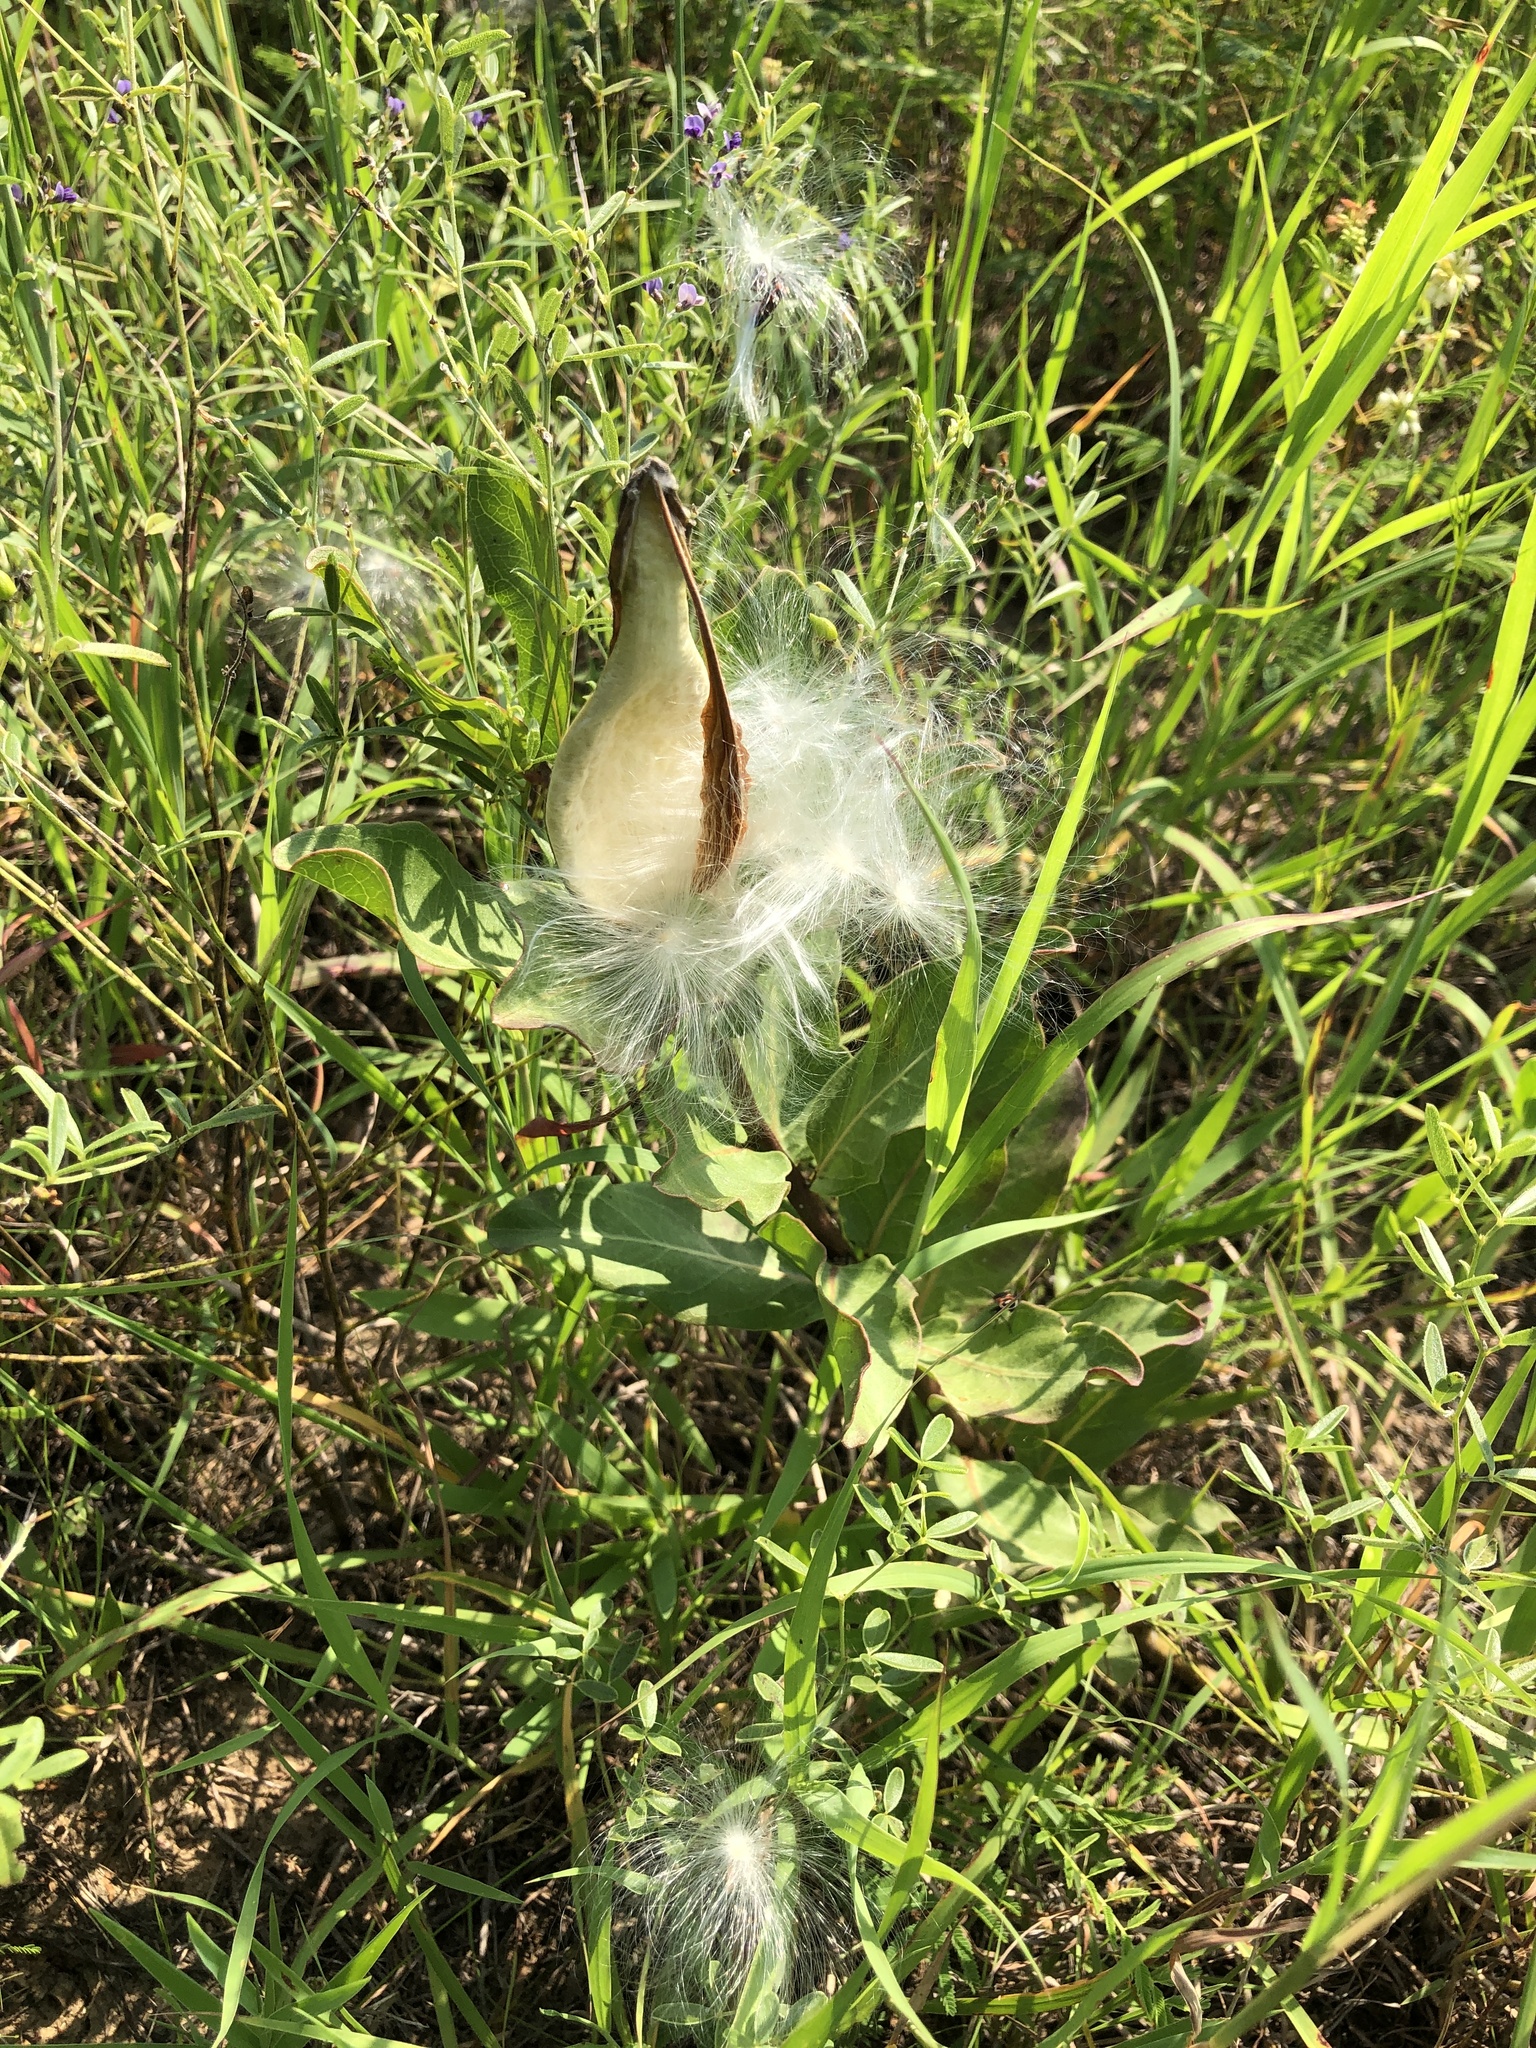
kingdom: Plantae
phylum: Tracheophyta
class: Magnoliopsida
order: Gentianales
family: Apocynaceae
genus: Asclepias
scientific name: Asclepias viridis
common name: Antelope-horns
